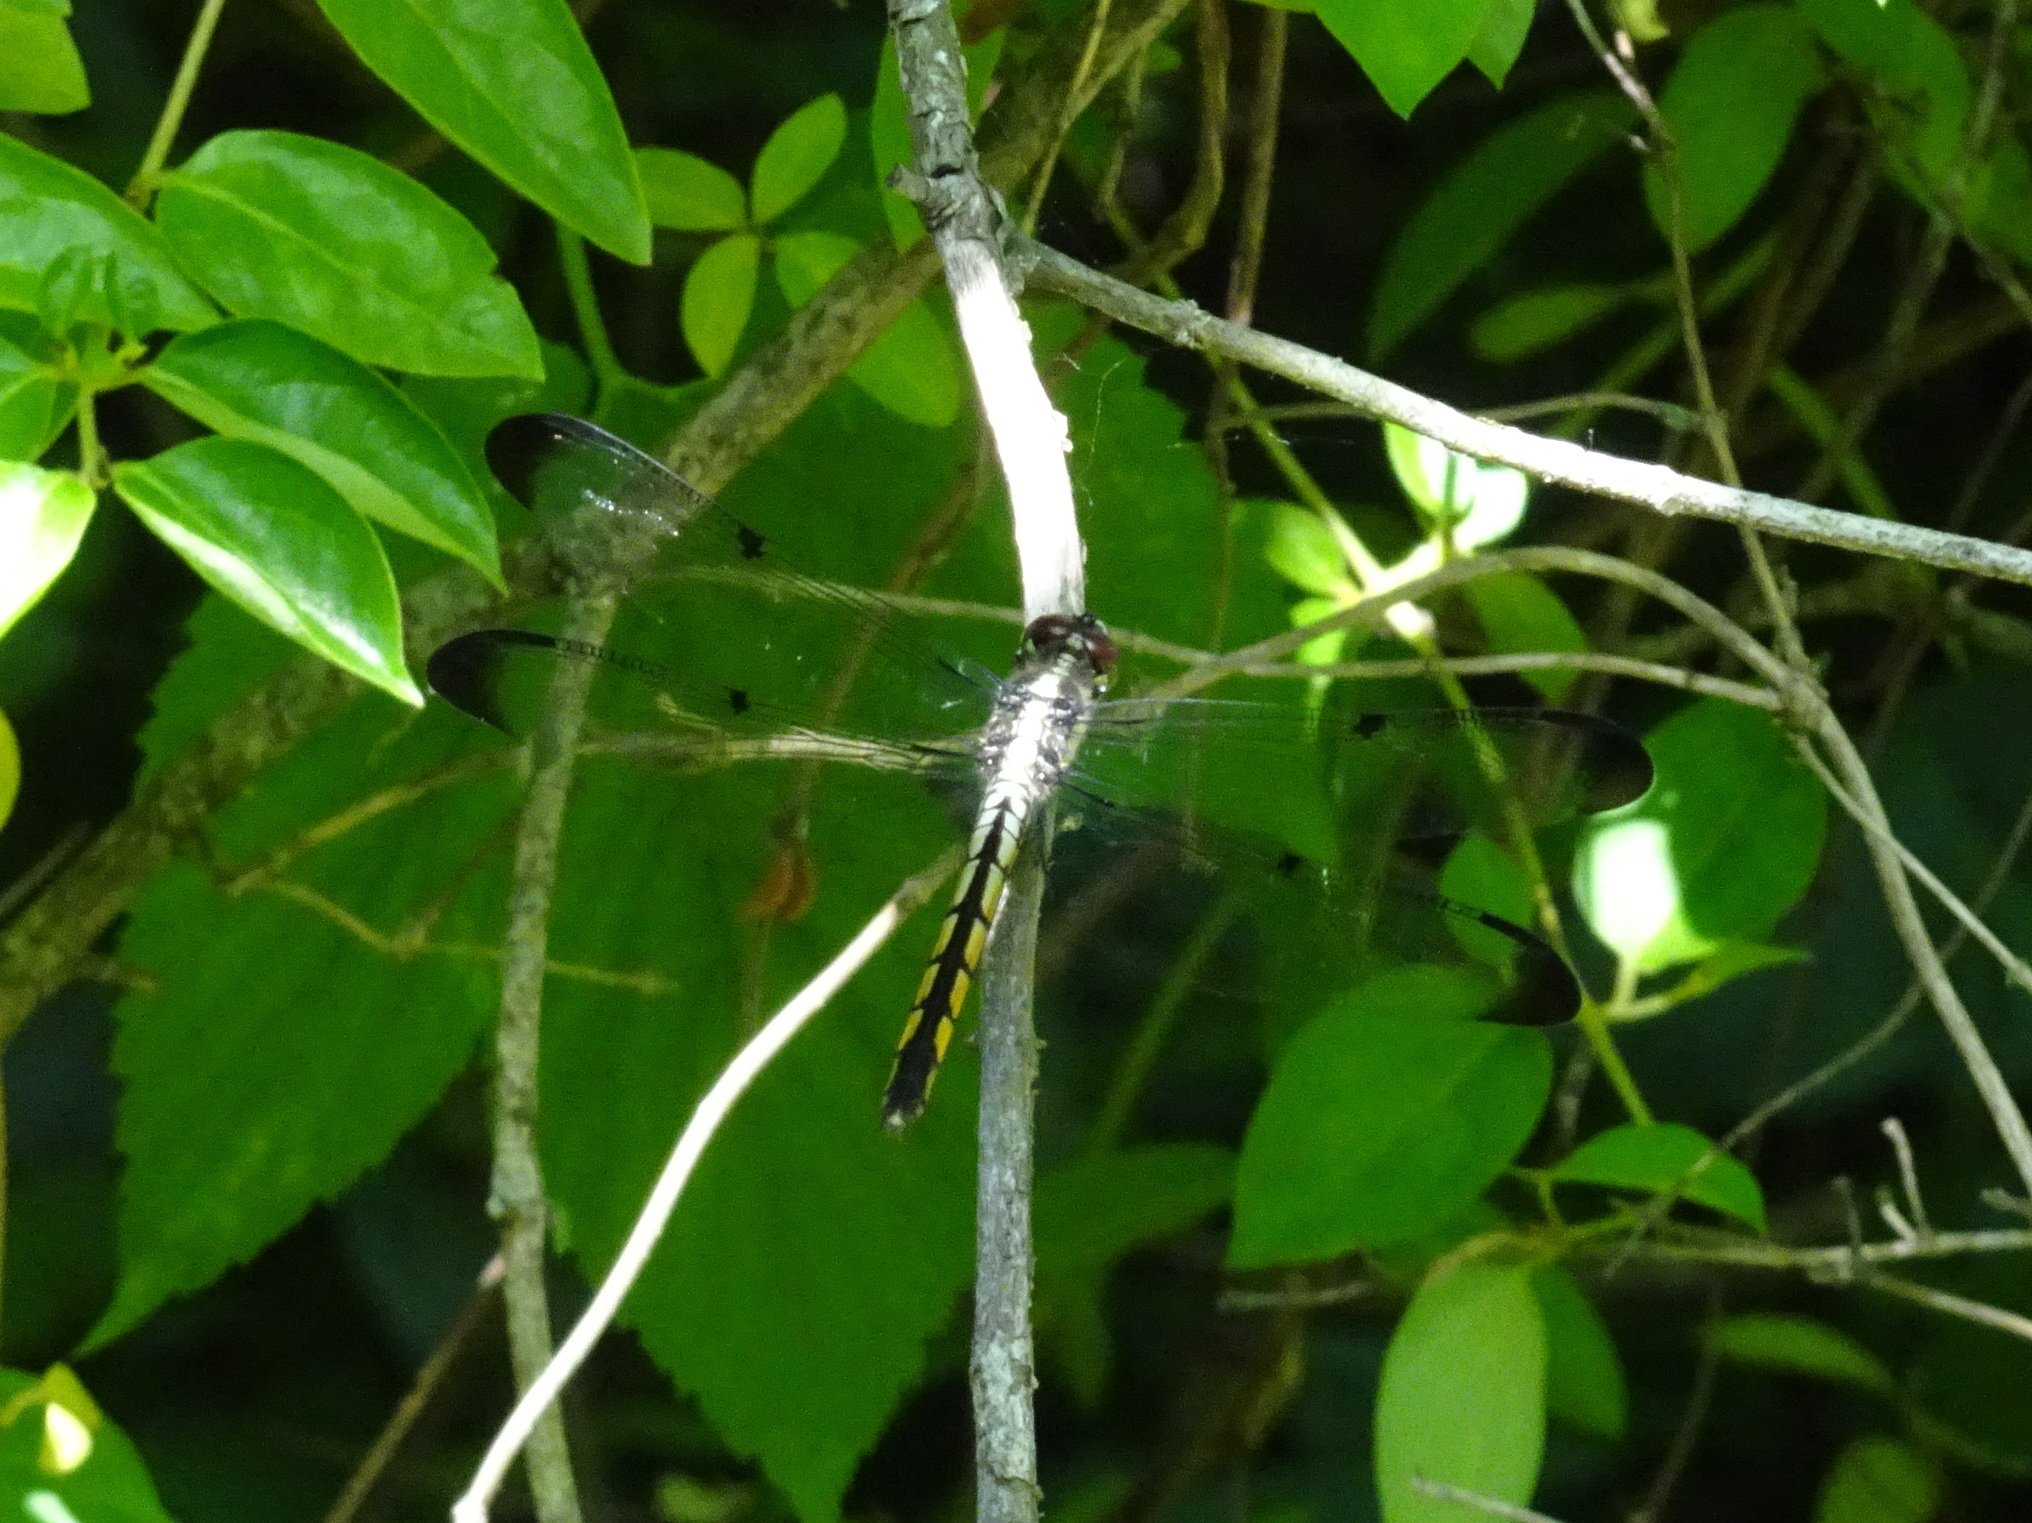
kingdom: Animalia
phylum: Arthropoda
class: Insecta
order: Odonata
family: Libellulidae
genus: Libellula
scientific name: Libellula vibrans
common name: Great blue skimmer
